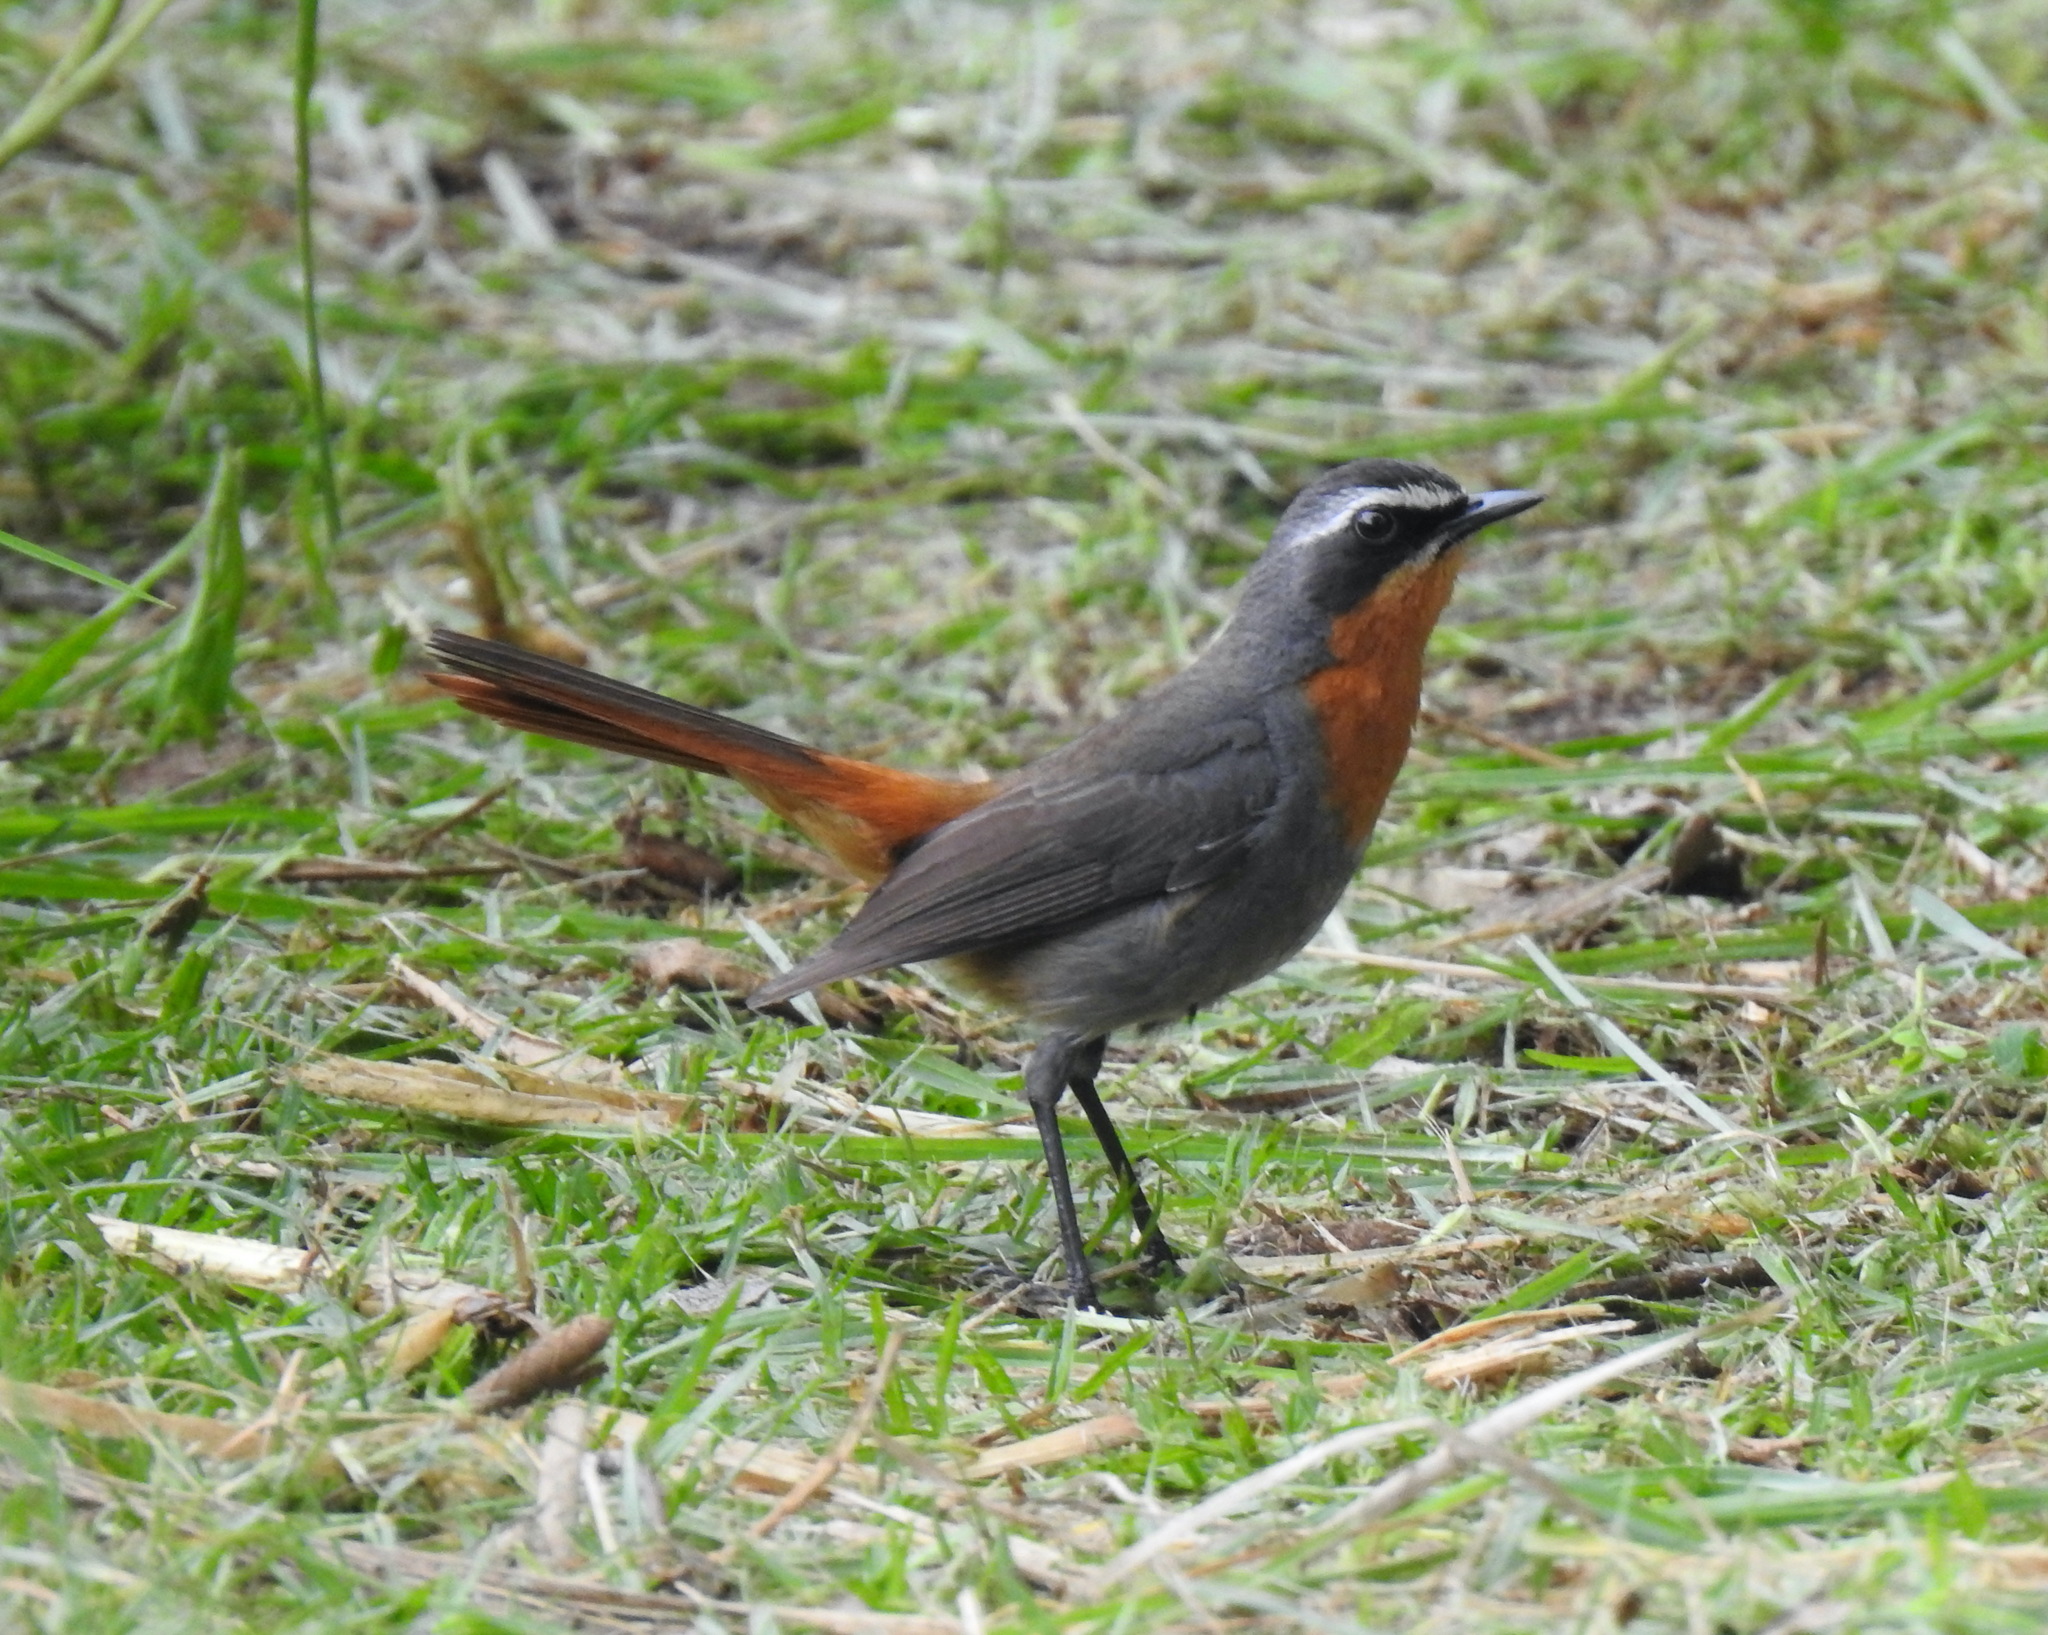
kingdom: Animalia
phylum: Chordata
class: Aves
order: Passeriformes
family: Muscicapidae
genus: Cossypha
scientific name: Cossypha caffra
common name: Cape robin-chat
